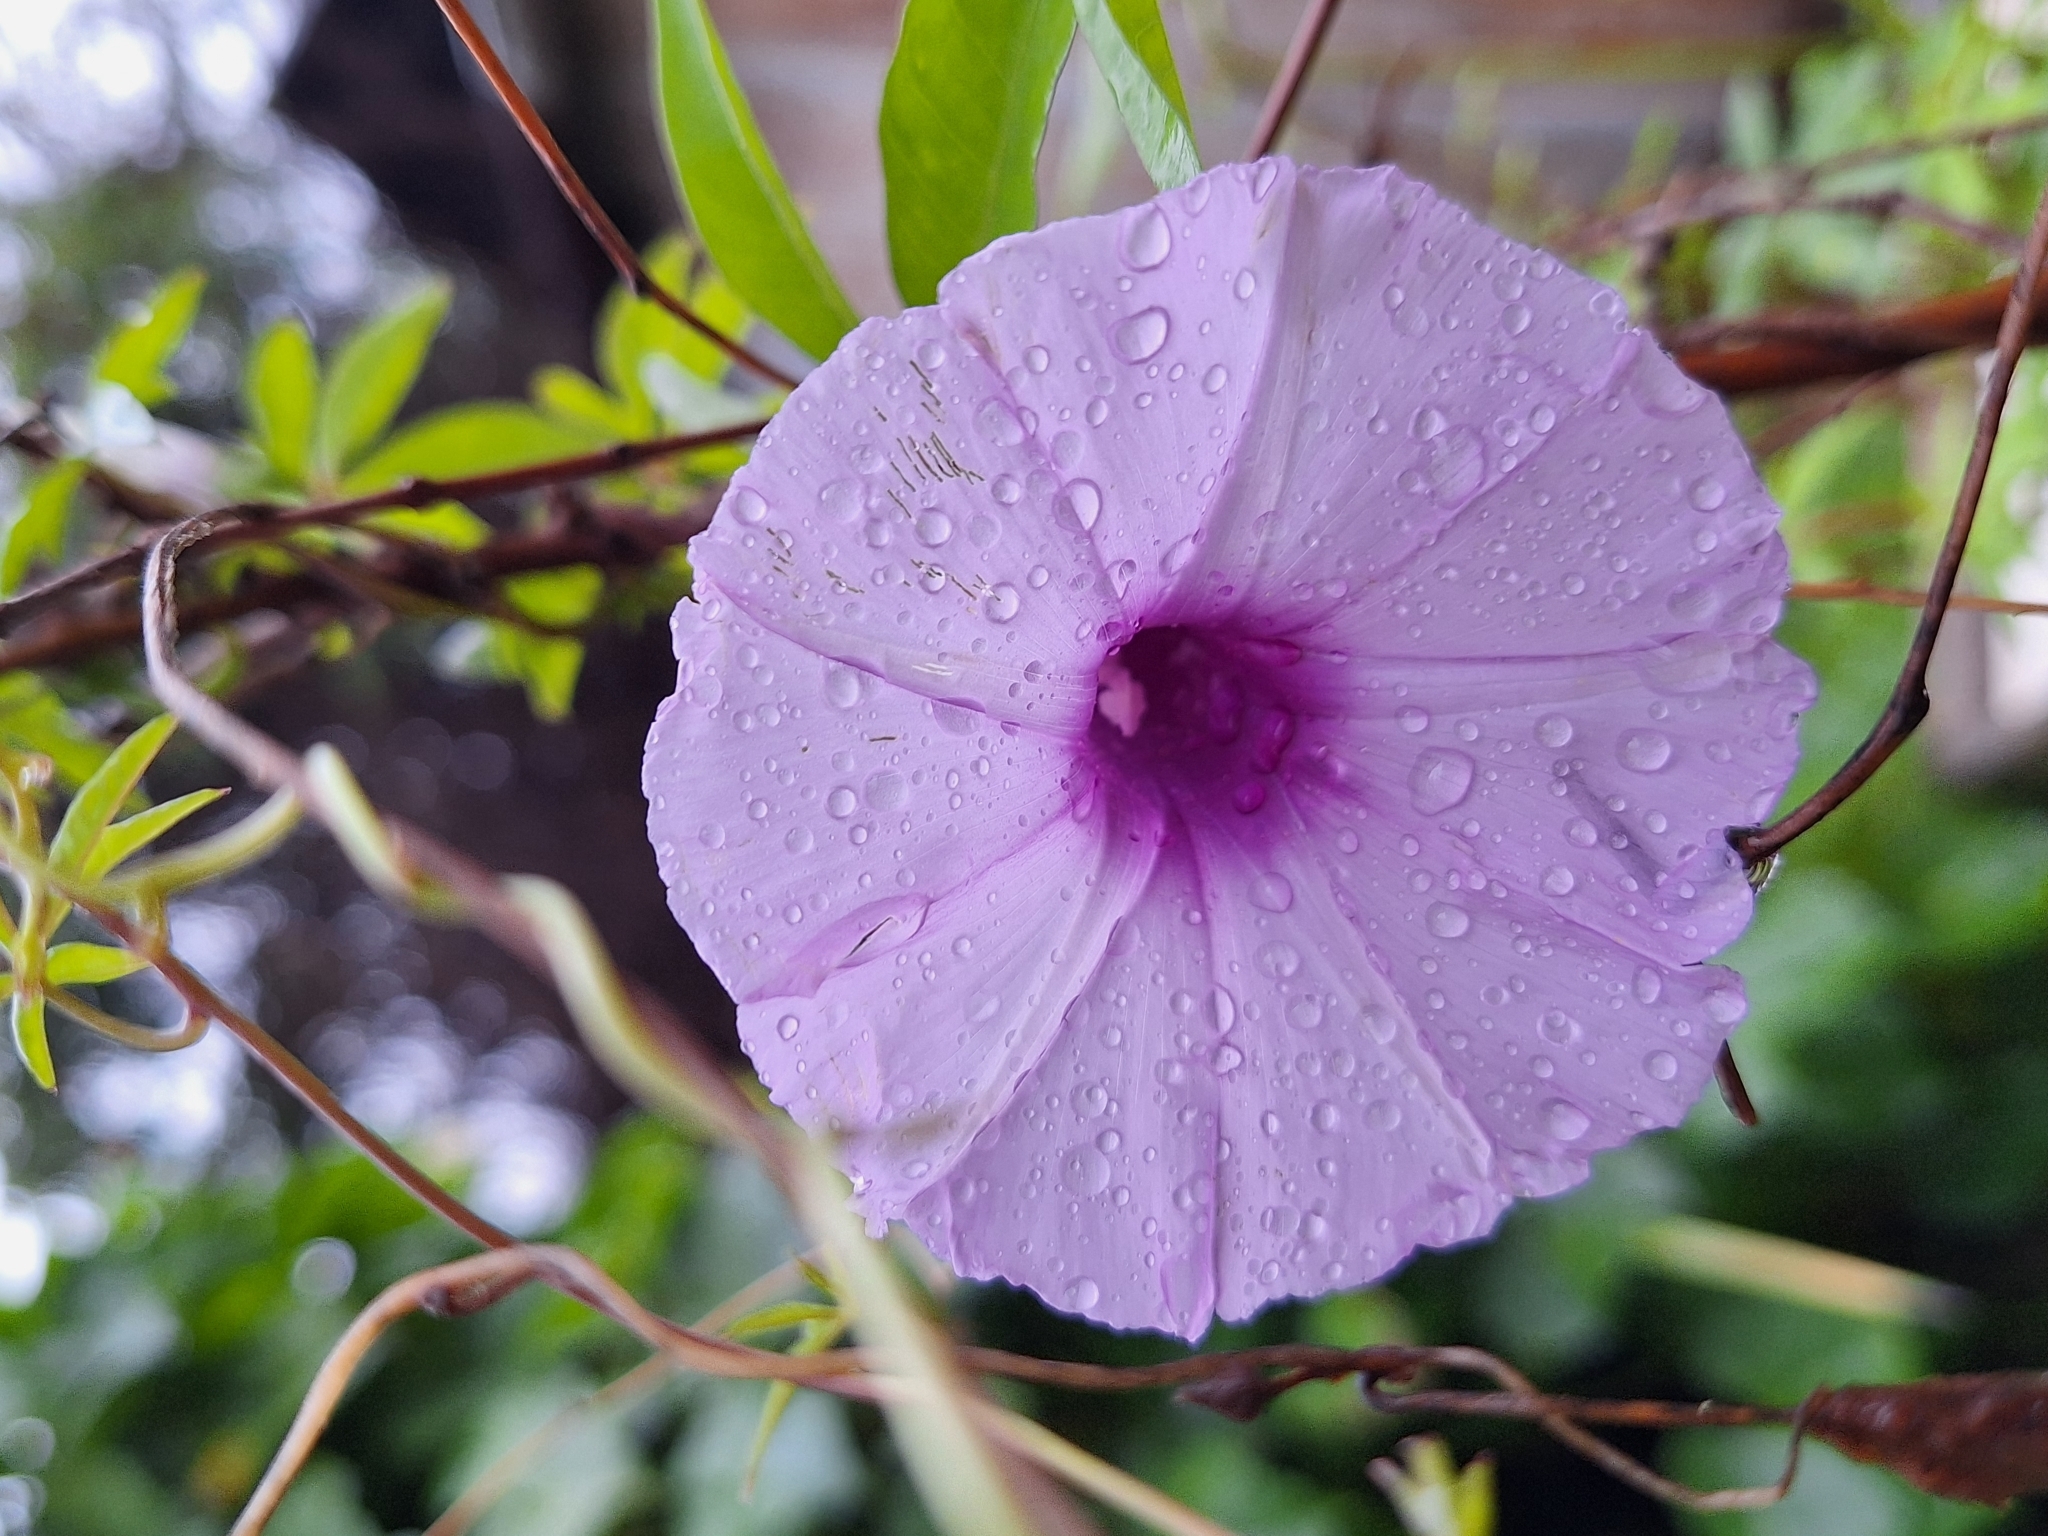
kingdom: Plantae
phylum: Tracheophyta
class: Magnoliopsida
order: Solanales
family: Convolvulaceae
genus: Ipomoea
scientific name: Ipomoea cairica
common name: Mile a minute vine
